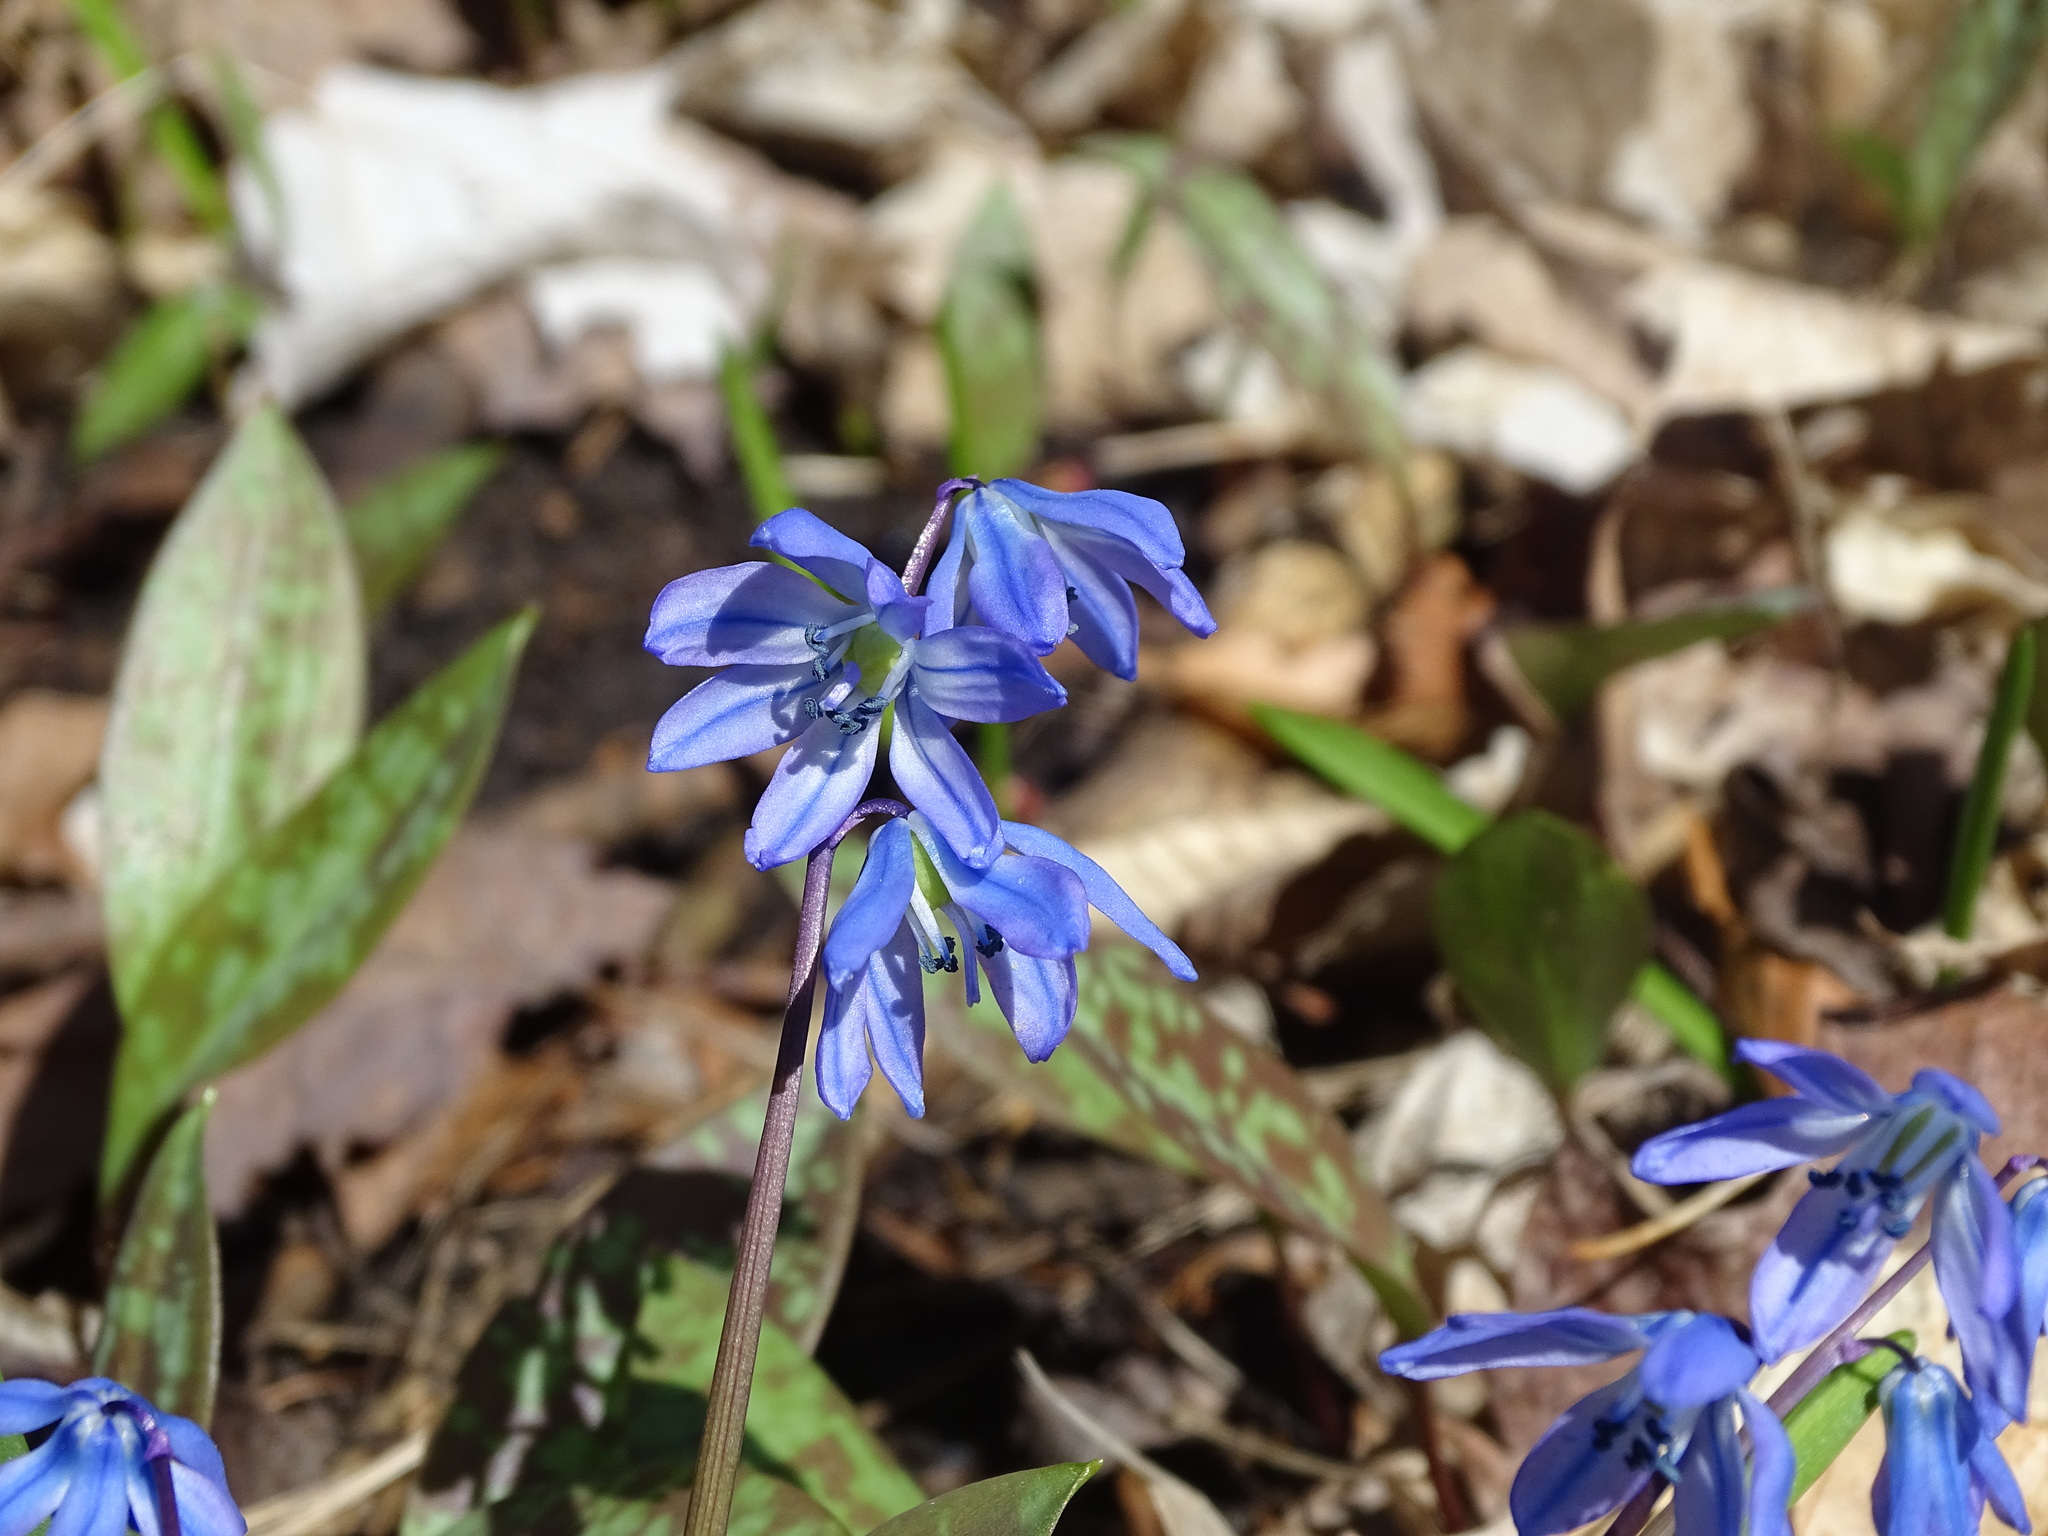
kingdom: Plantae
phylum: Tracheophyta
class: Liliopsida
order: Asparagales
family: Asparagaceae
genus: Scilla
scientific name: Scilla siberica
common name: Siberian squill
